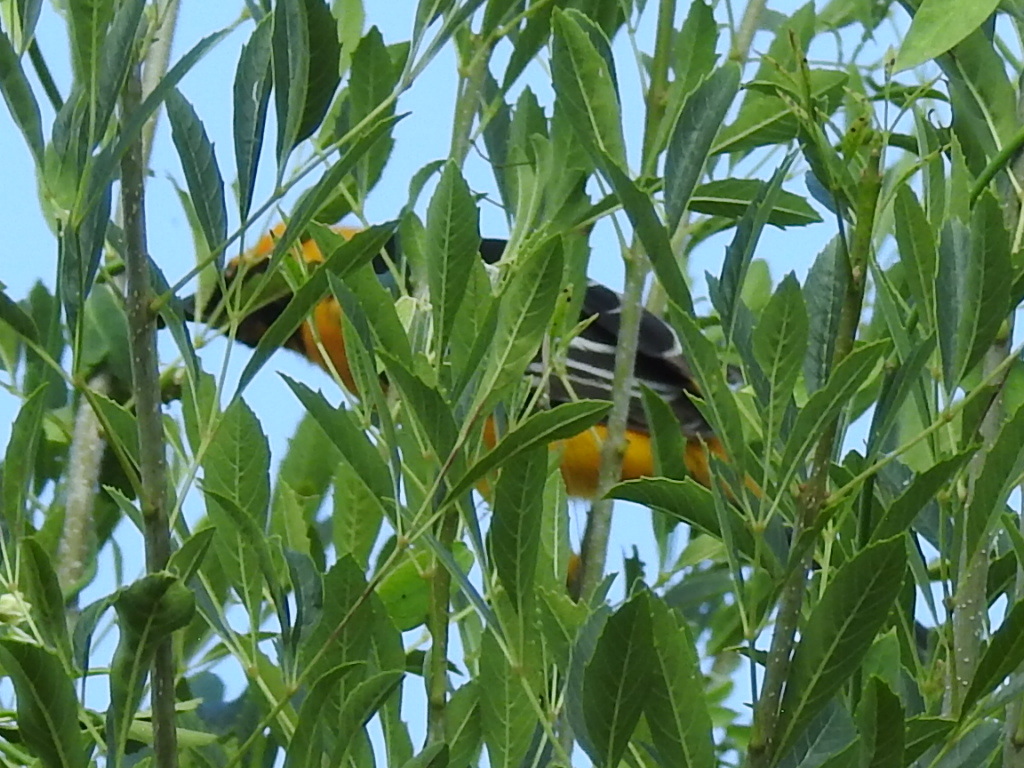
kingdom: Animalia
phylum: Chordata
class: Aves
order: Passeriformes
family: Icteridae
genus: Icterus
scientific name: Icterus gularis
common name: Altamira oriole
